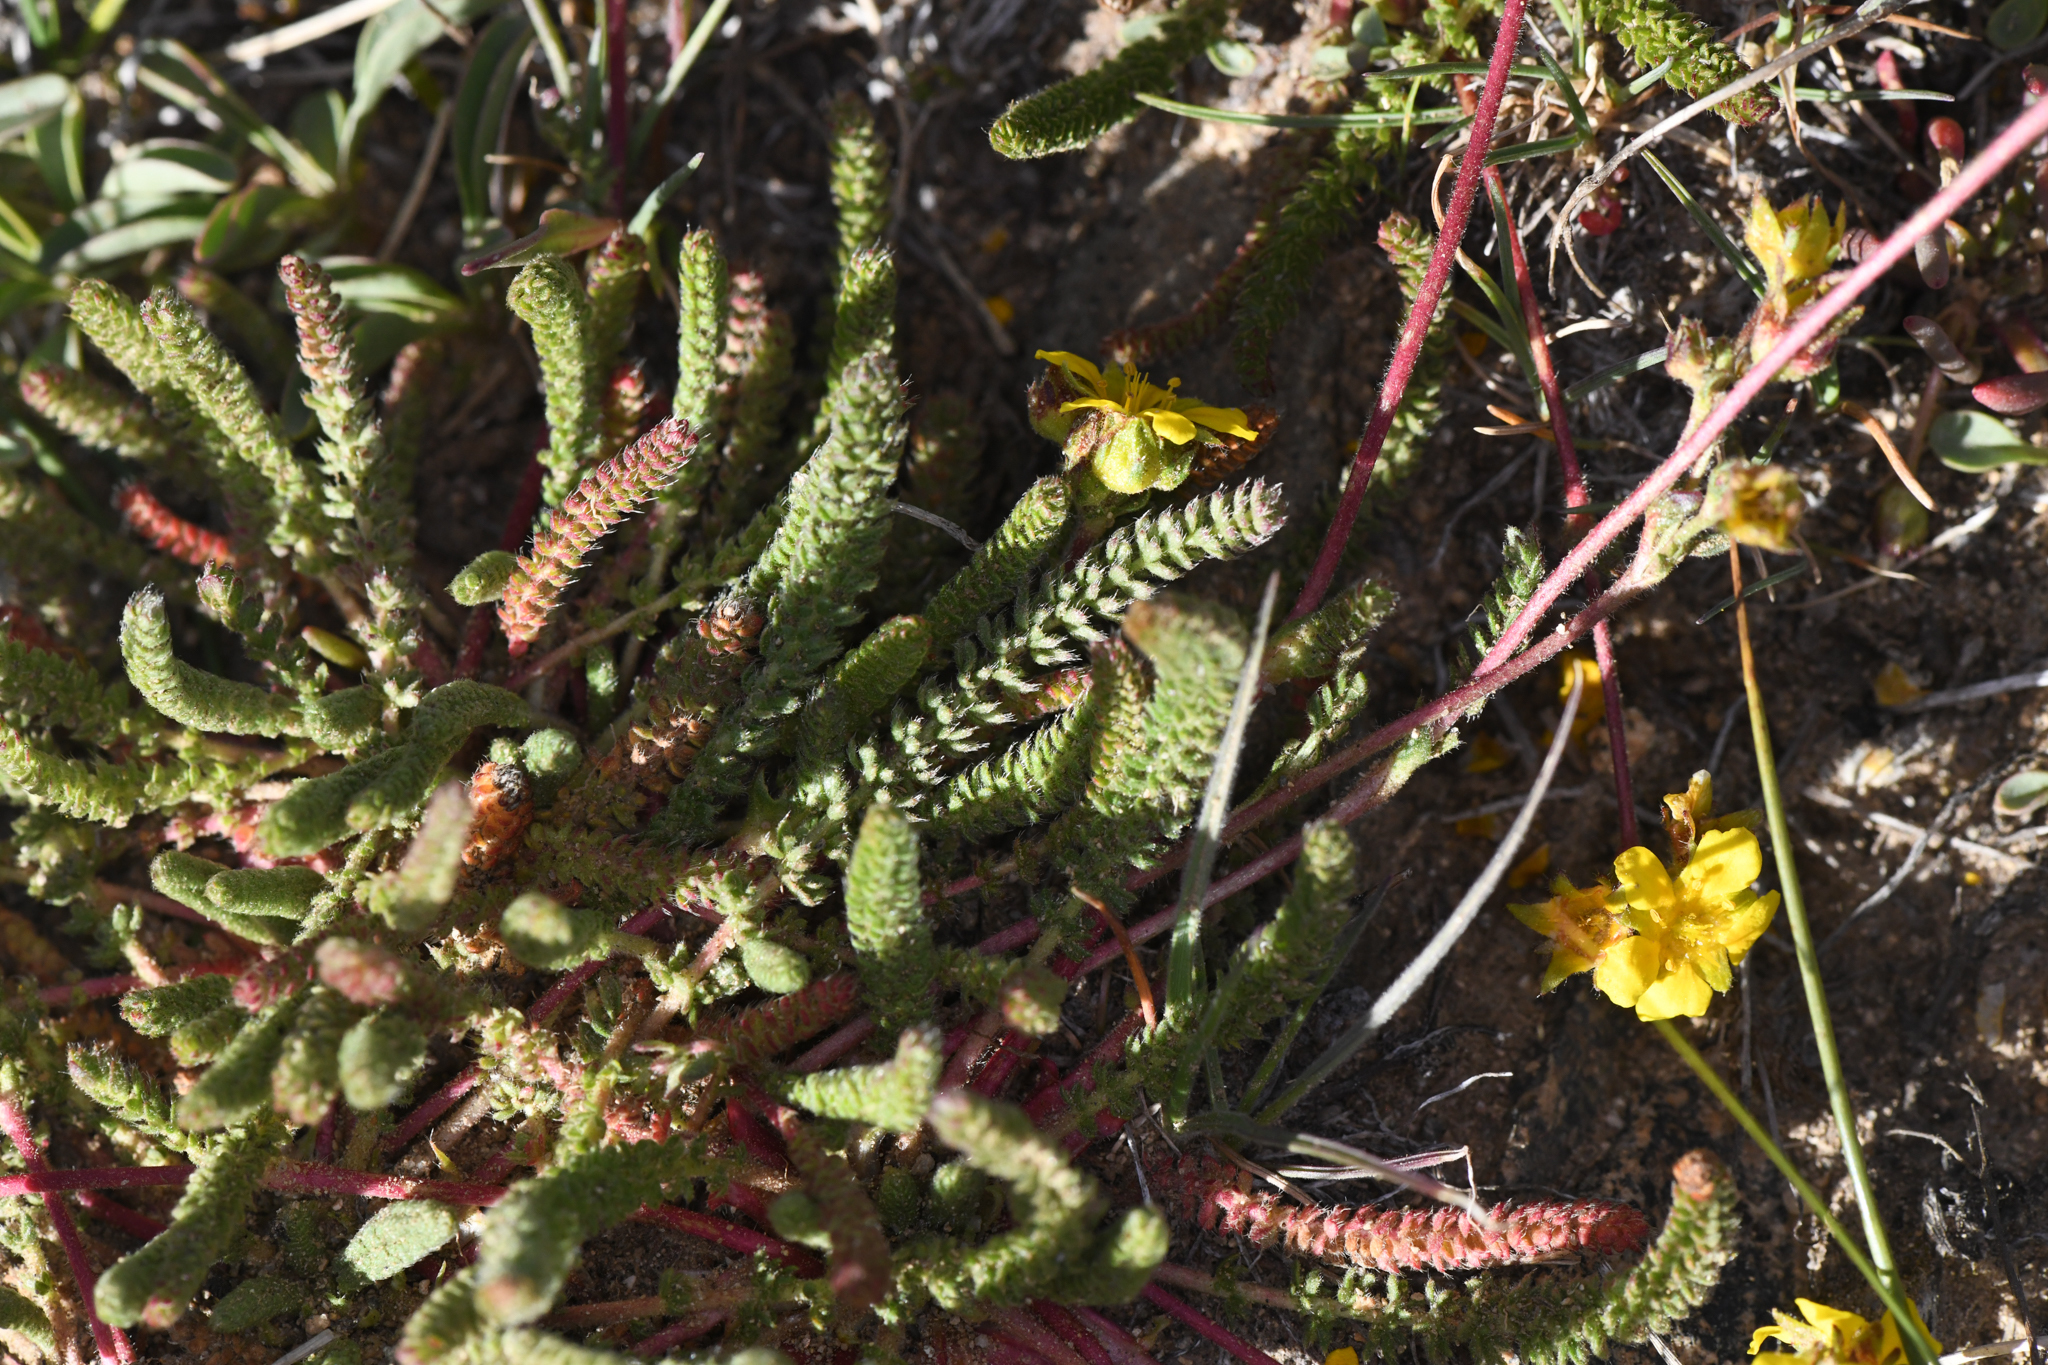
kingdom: Plantae
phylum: Tracheophyta
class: Magnoliopsida
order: Rosales
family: Rosaceae
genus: Potentilla
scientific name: Potentilla lycopodioides
